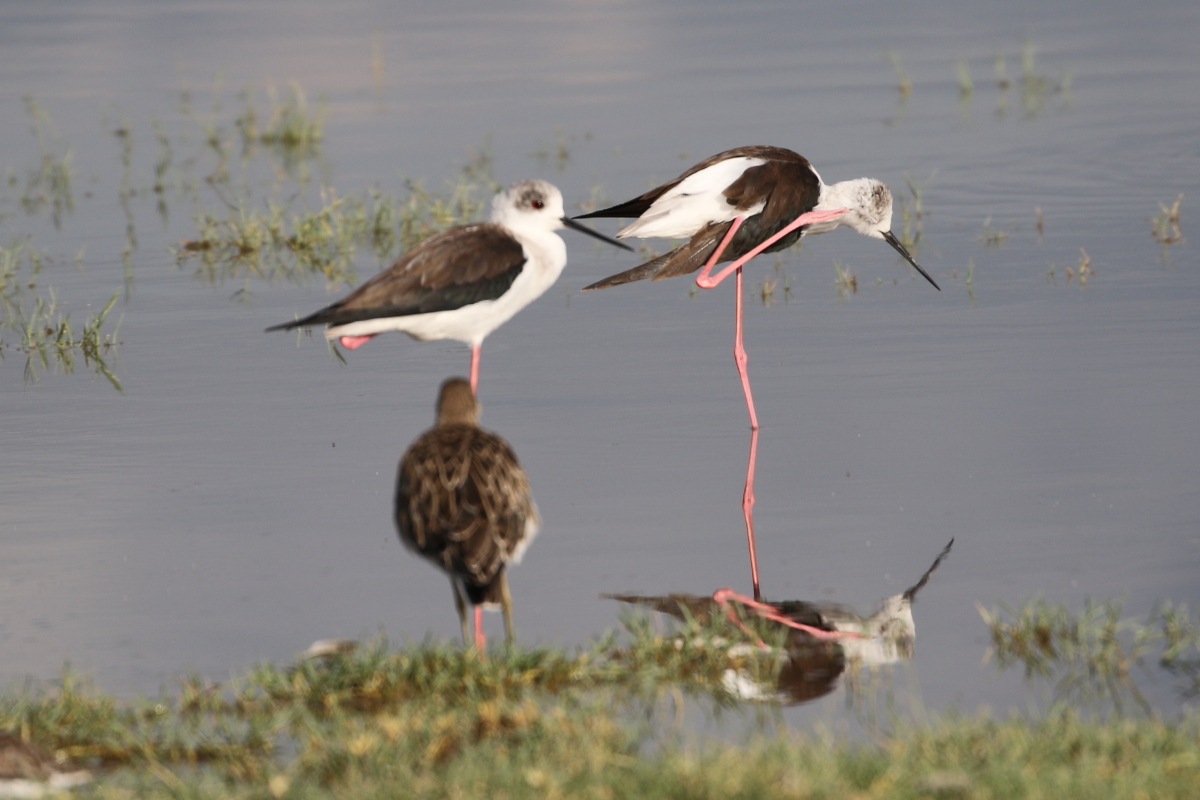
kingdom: Animalia
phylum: Chordata
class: Aves
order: Charadriiformes
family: Recurvirostridae
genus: Himantopus
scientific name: Himantopus himantopus
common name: Black-winged stilt
